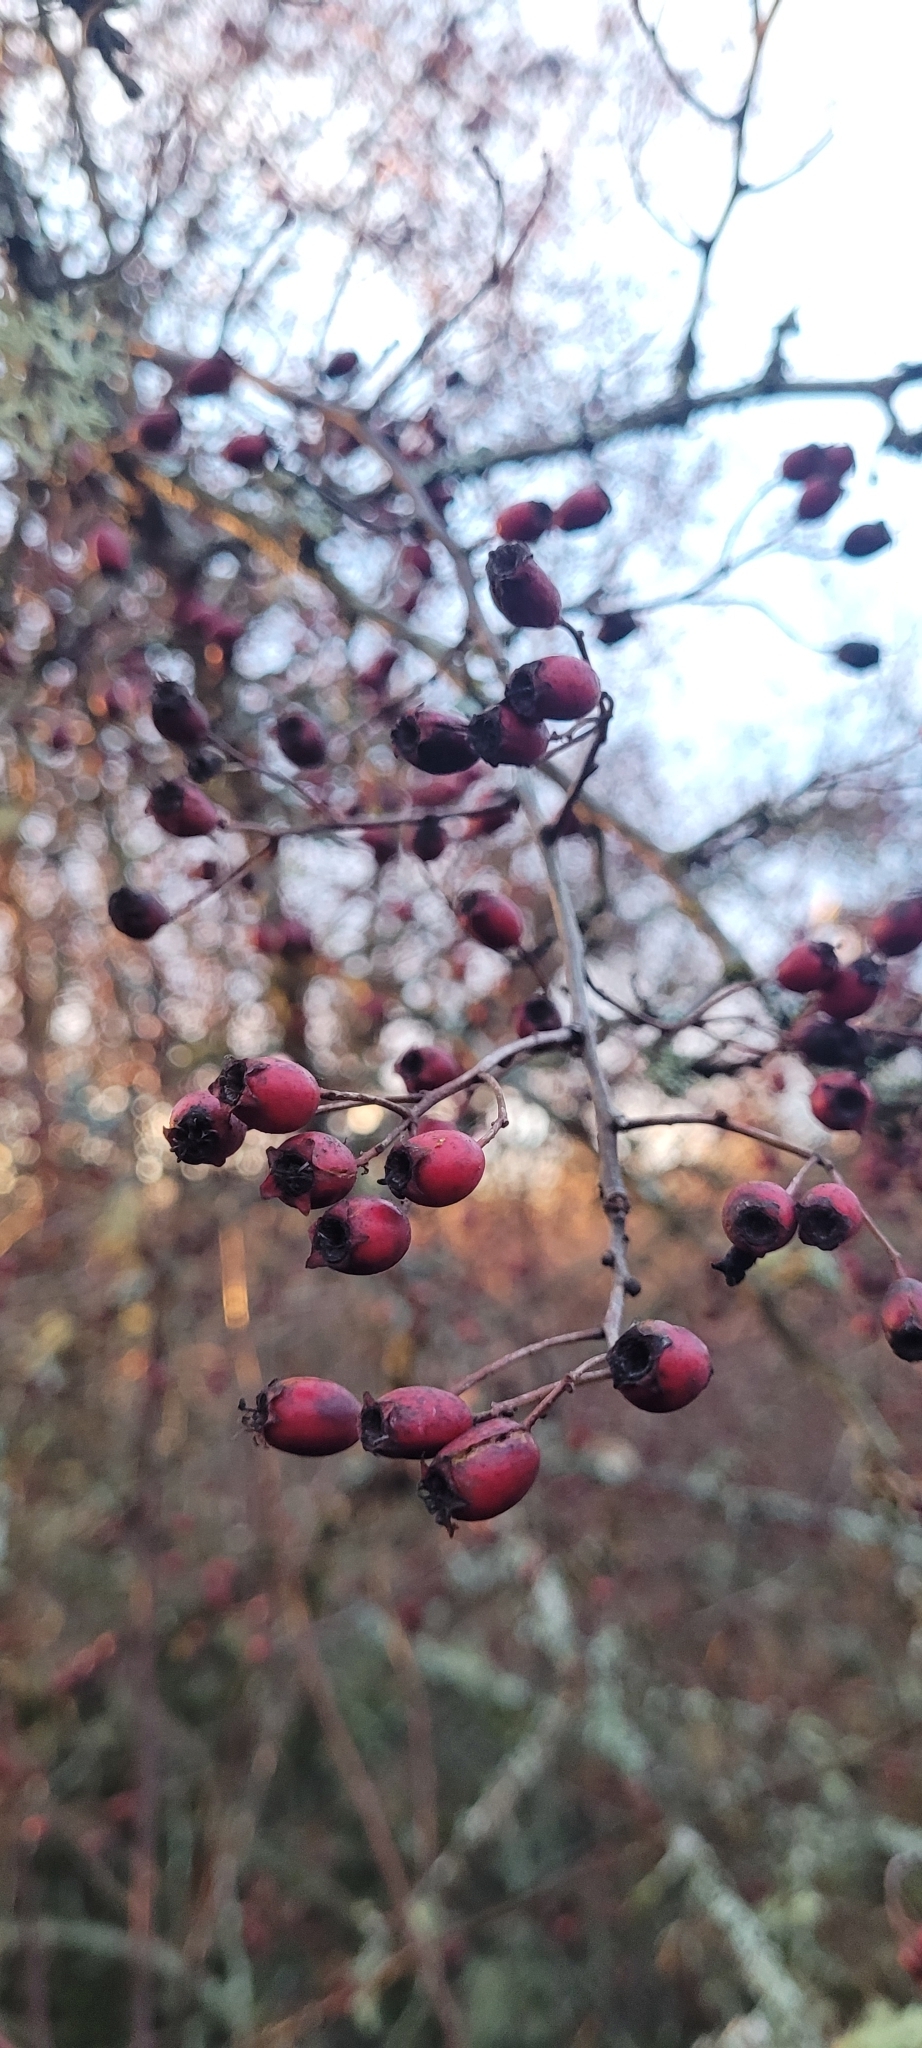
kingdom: Plantae
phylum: Tracheophyta
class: Magnoliopsida
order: Rosales
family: Rosaceae
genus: Crataegus
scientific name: Crataegus douglasii
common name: Black hawthorn
